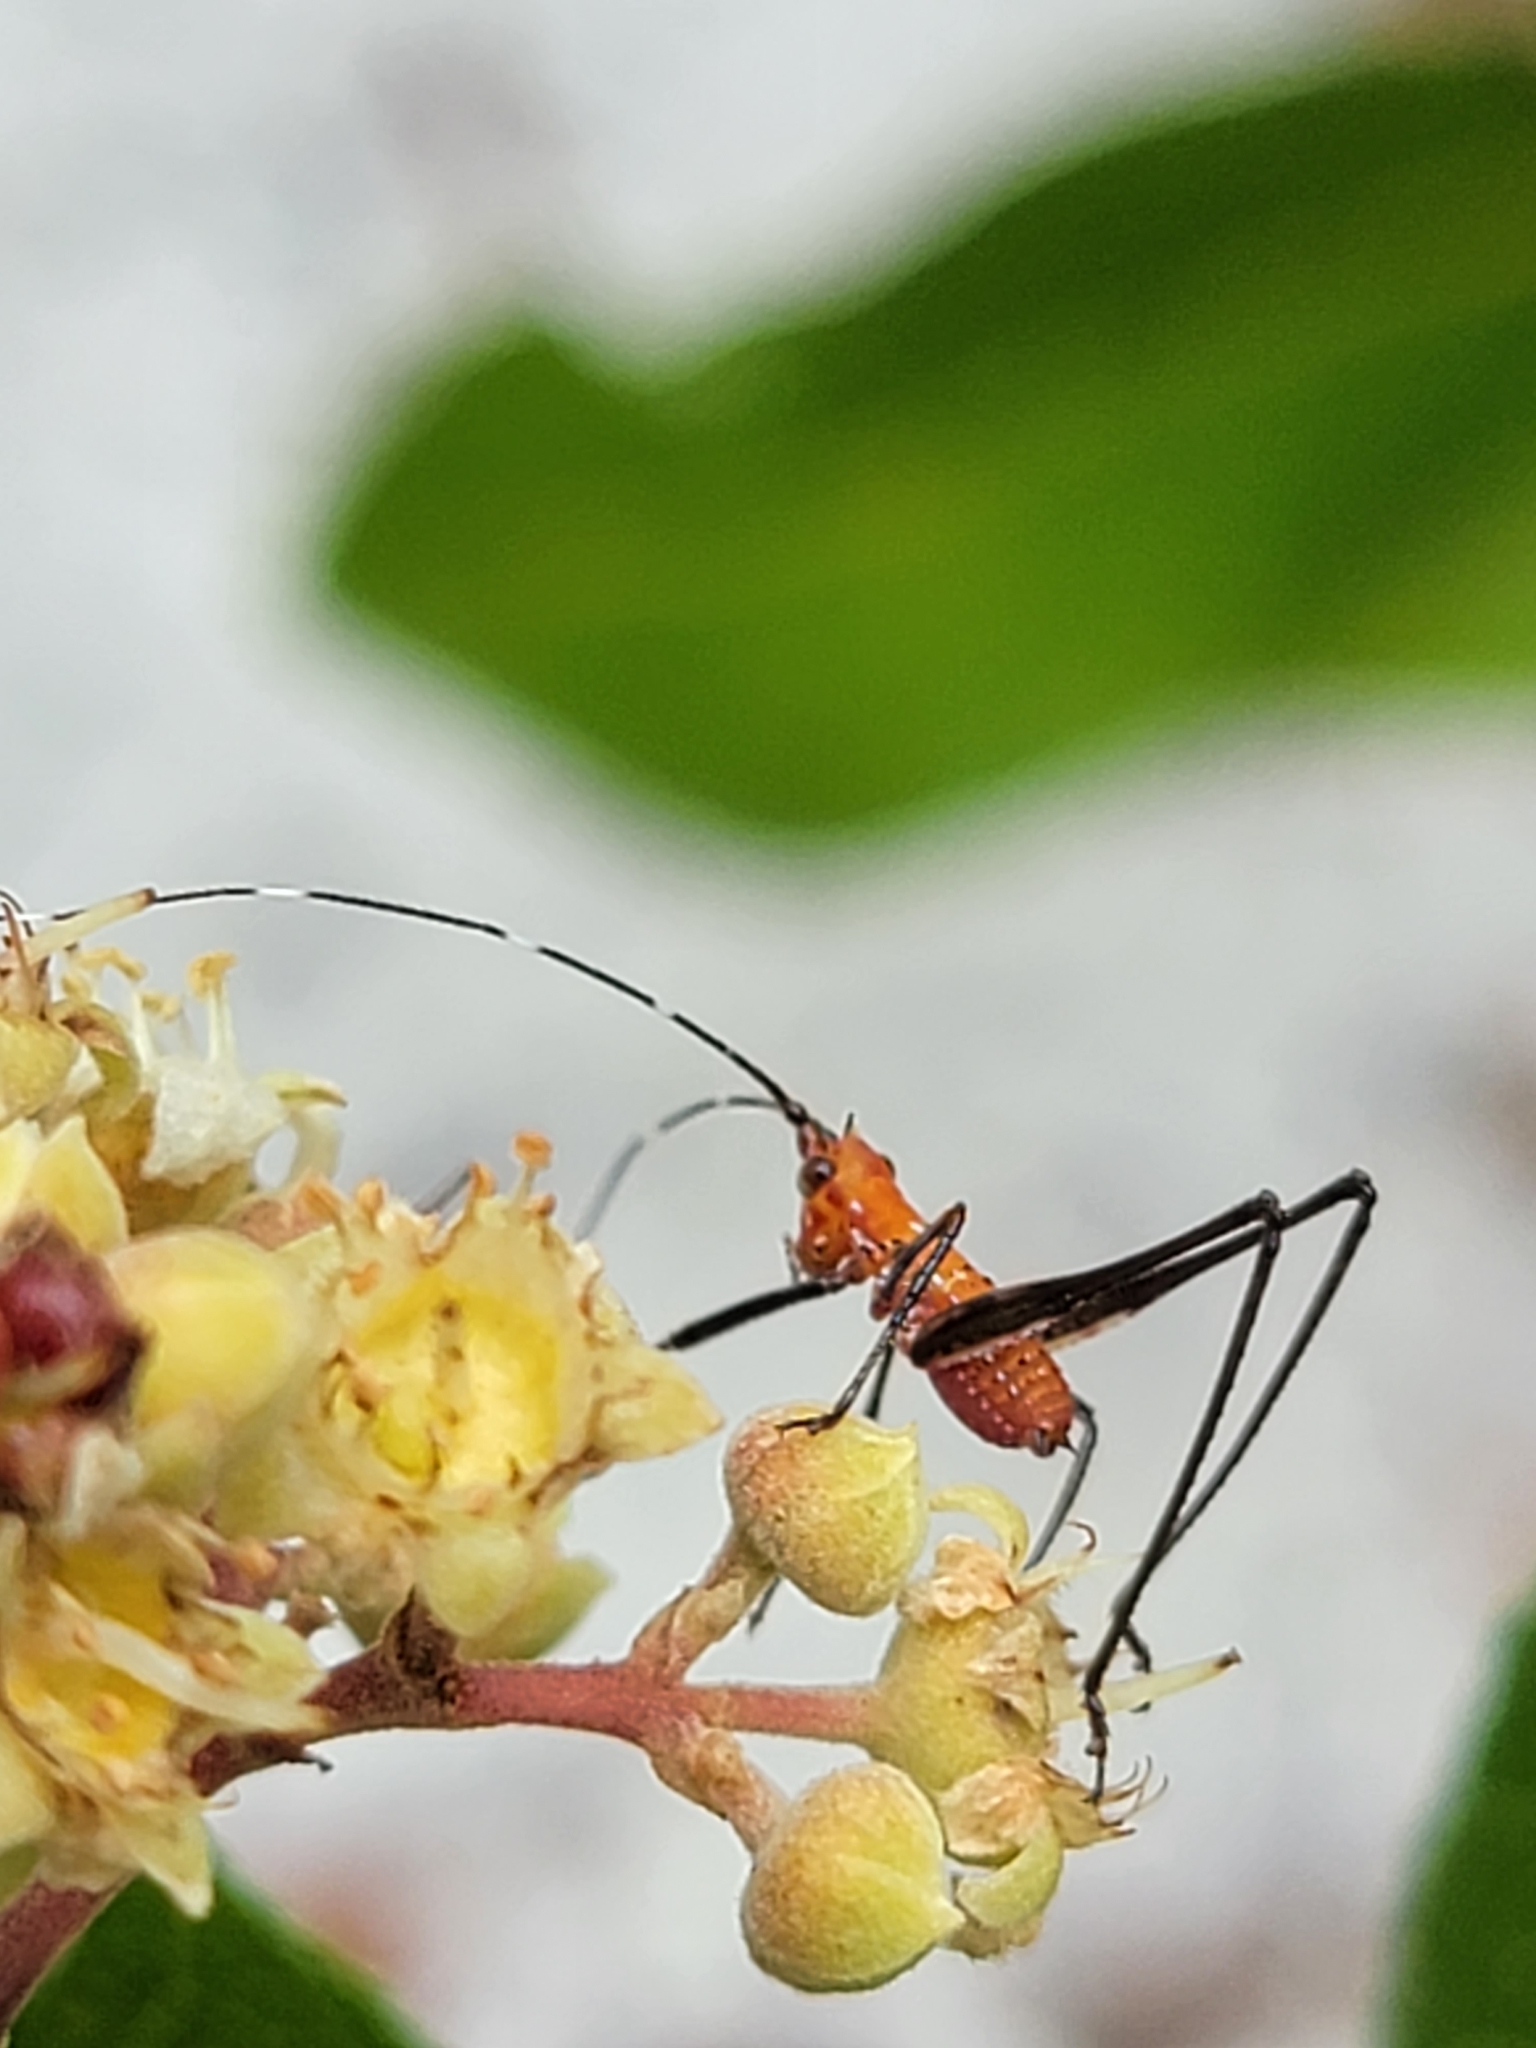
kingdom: Animalia
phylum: Arthropoda
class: Insecta
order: Orthoptera
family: Tettigoniidae
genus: Scudderia
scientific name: Scudderia cuneata
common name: Southeastern bush katydid
